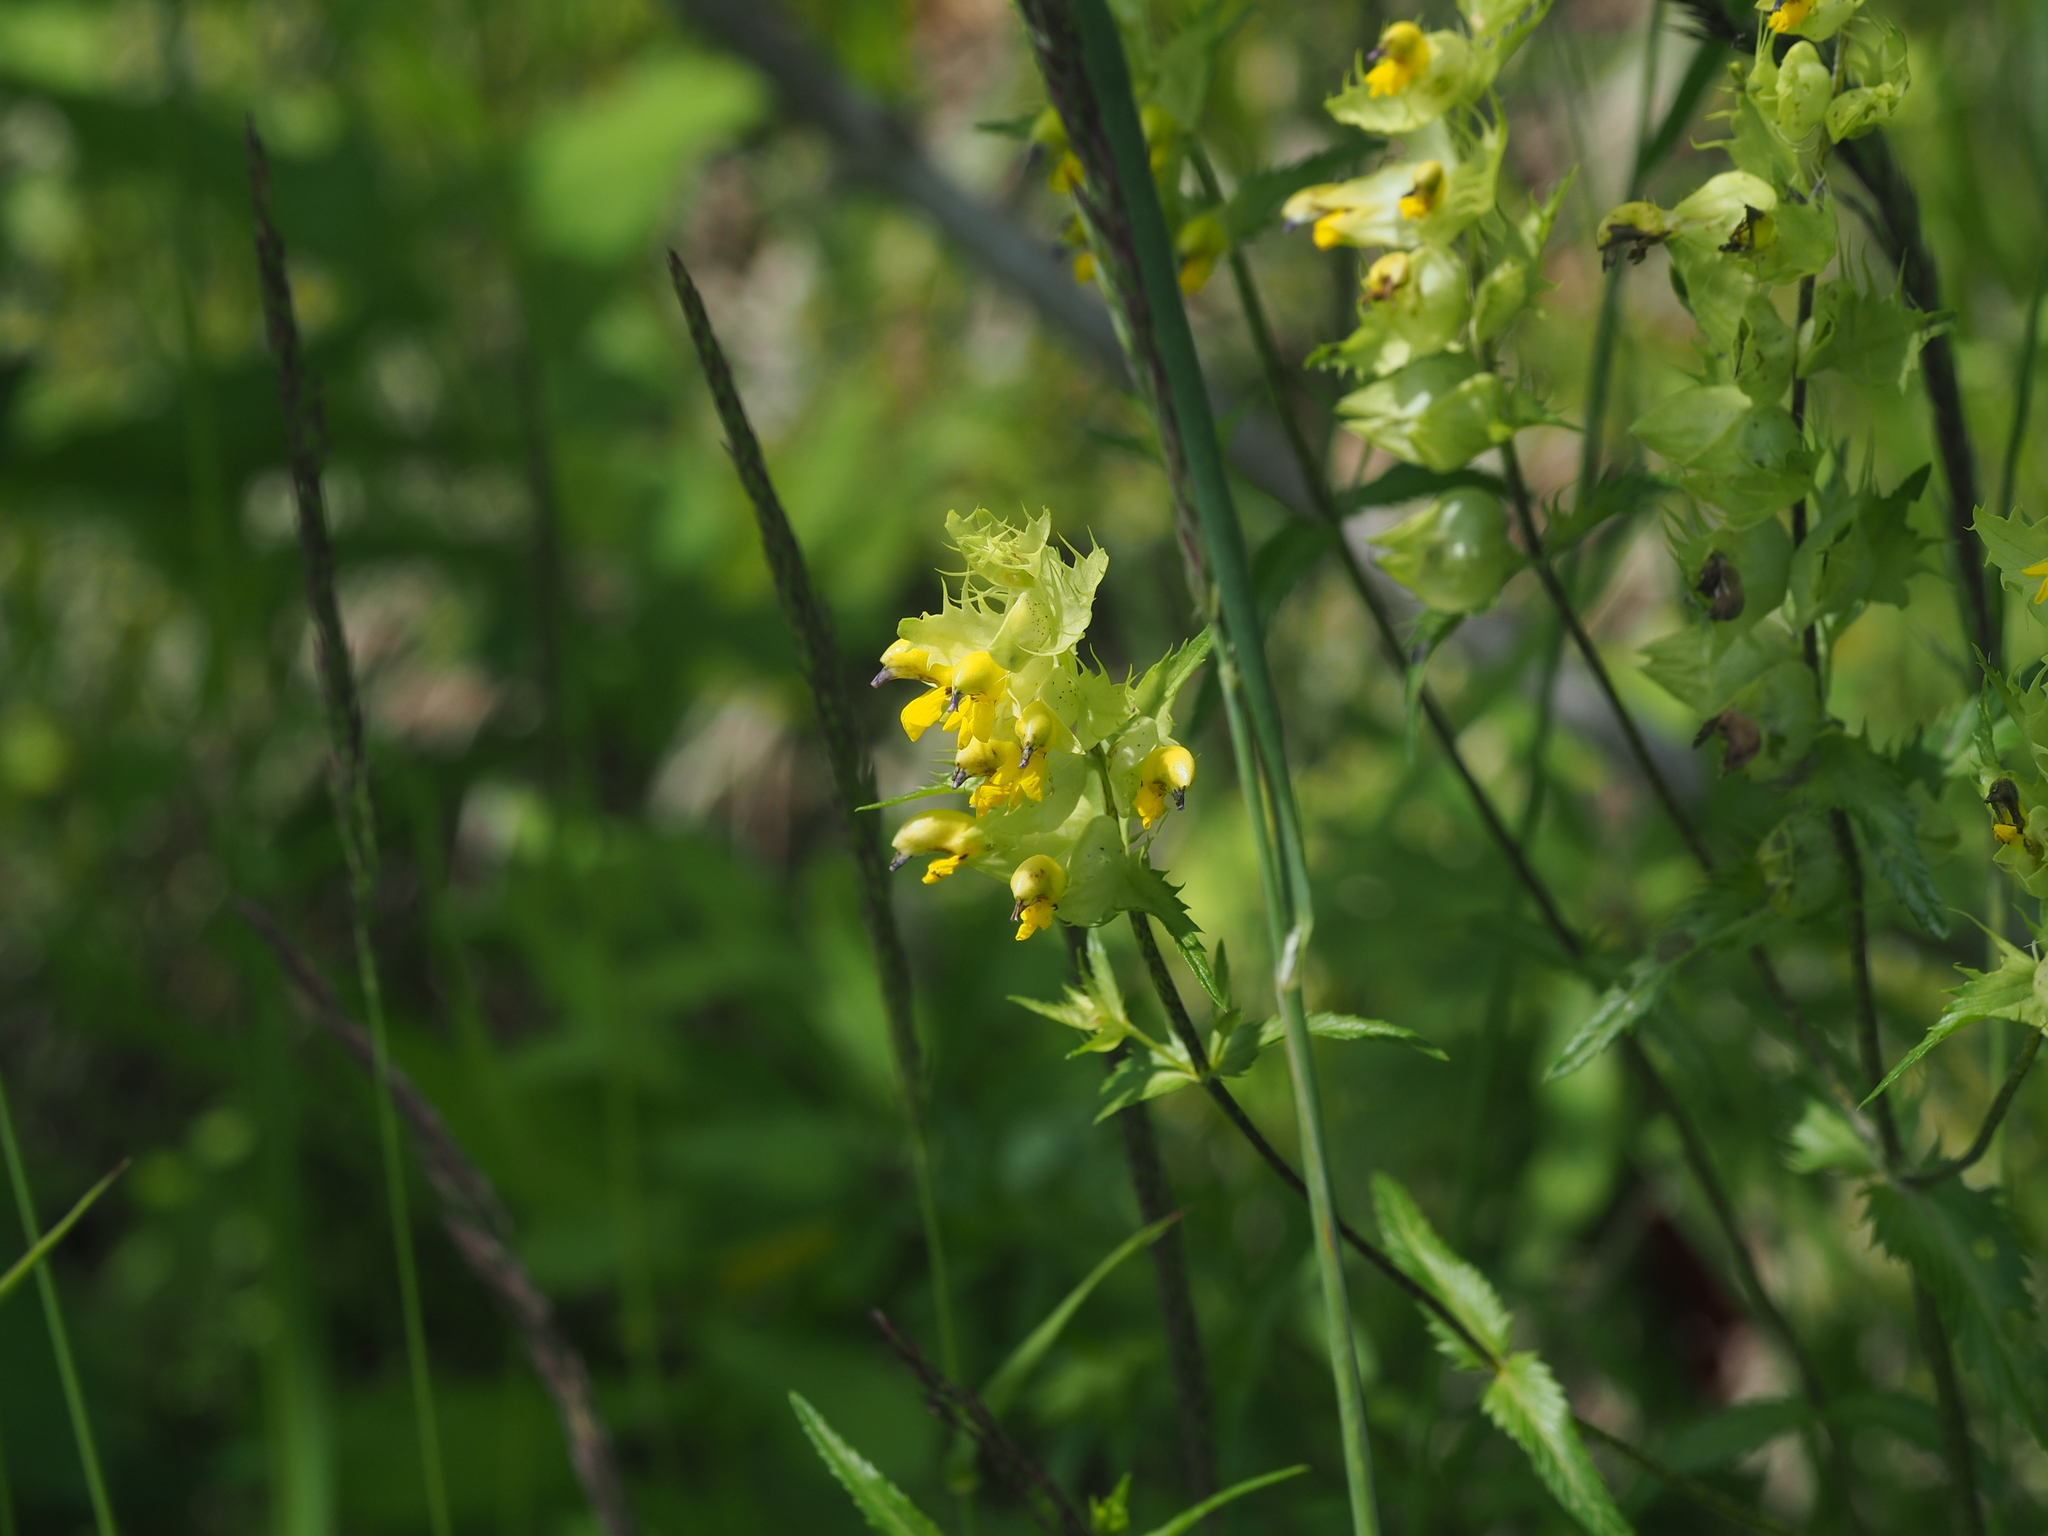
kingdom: Plantae
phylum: Tracheophyta
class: Magnoliopsida
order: Lamiales
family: Orobanchaceae
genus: Rhinanthus
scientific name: Rhinanthus glacialis
